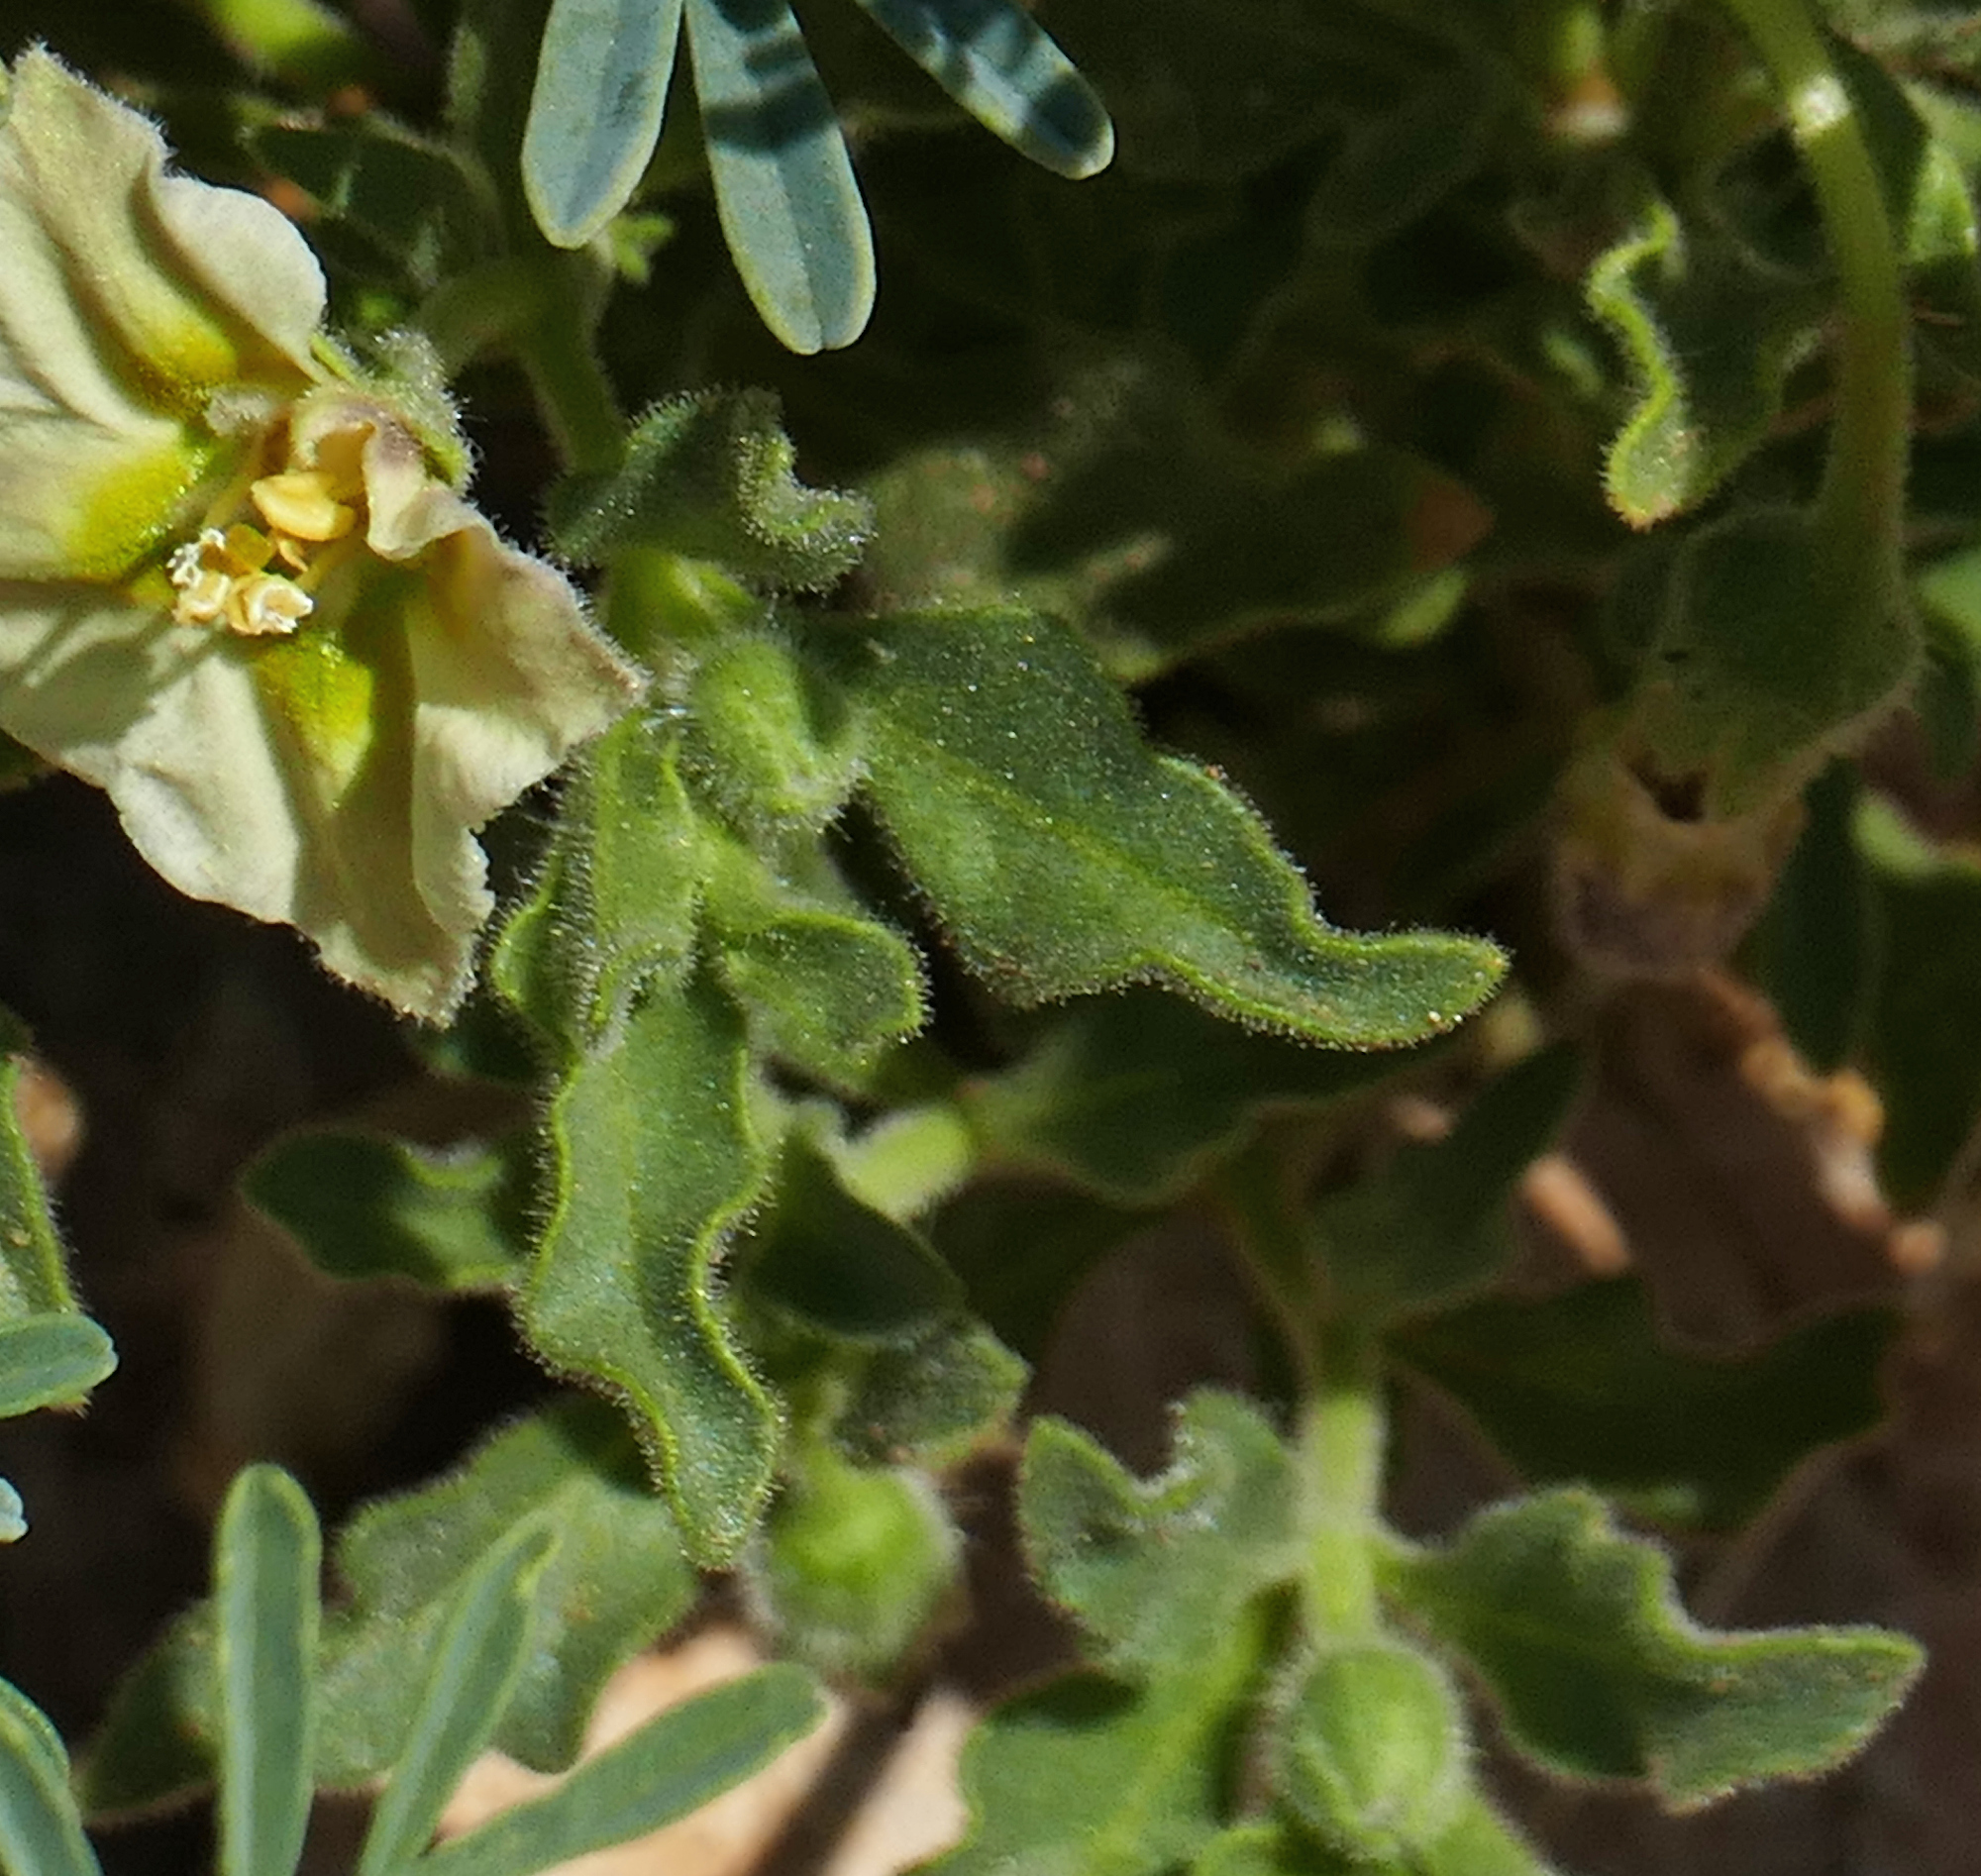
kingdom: Plantae
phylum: Tracheophyta
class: Magnoliopsida
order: Solanales
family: Solanaceae
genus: Chamaesaracha
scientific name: Chamaesaracha sordida
